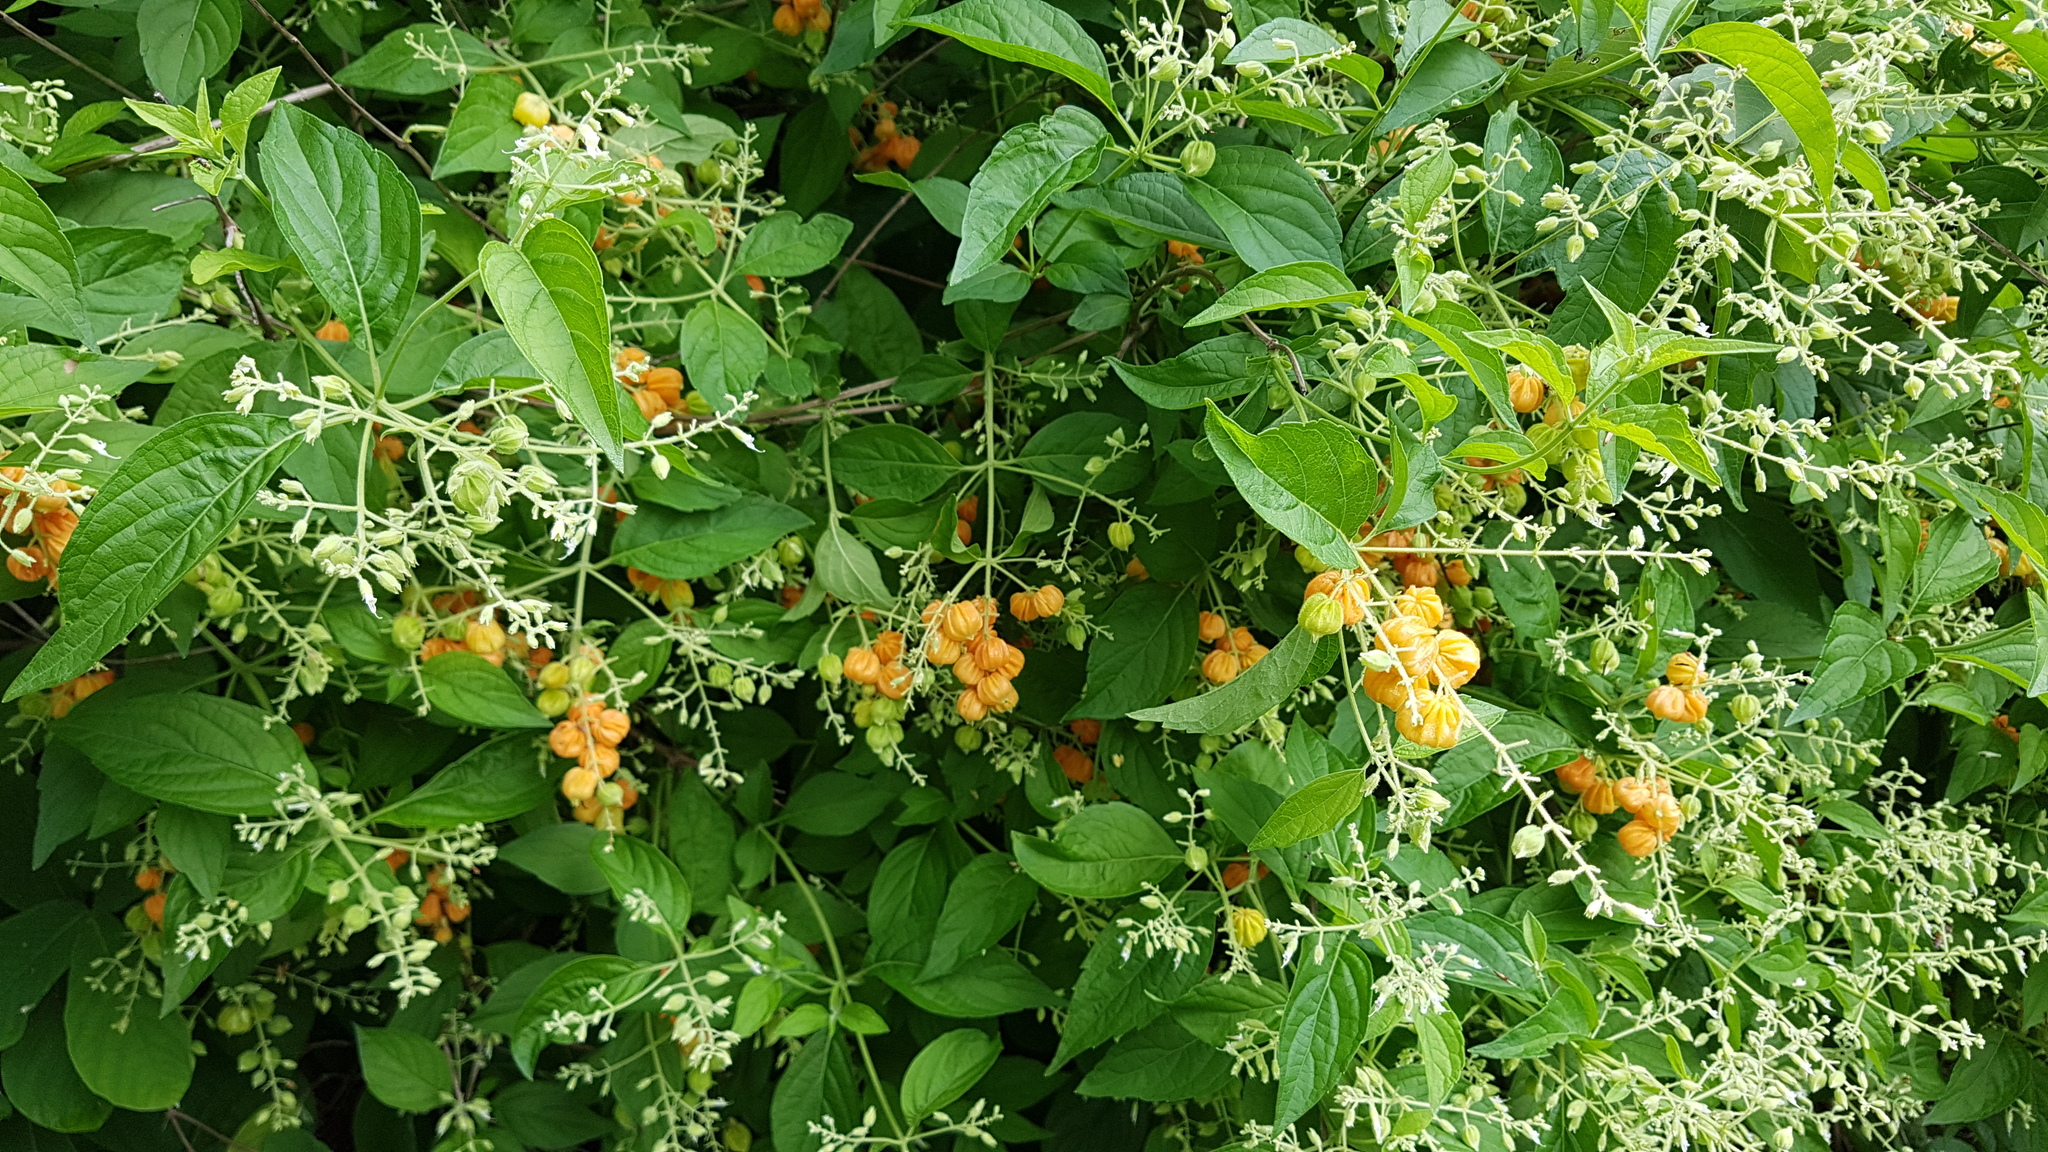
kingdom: Plantae
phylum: Tracheophyta
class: Magnoliopsida
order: Lamiales
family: Lamiaceae
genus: Hoslundia
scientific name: Hoslundia opposita
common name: Kamyuye
